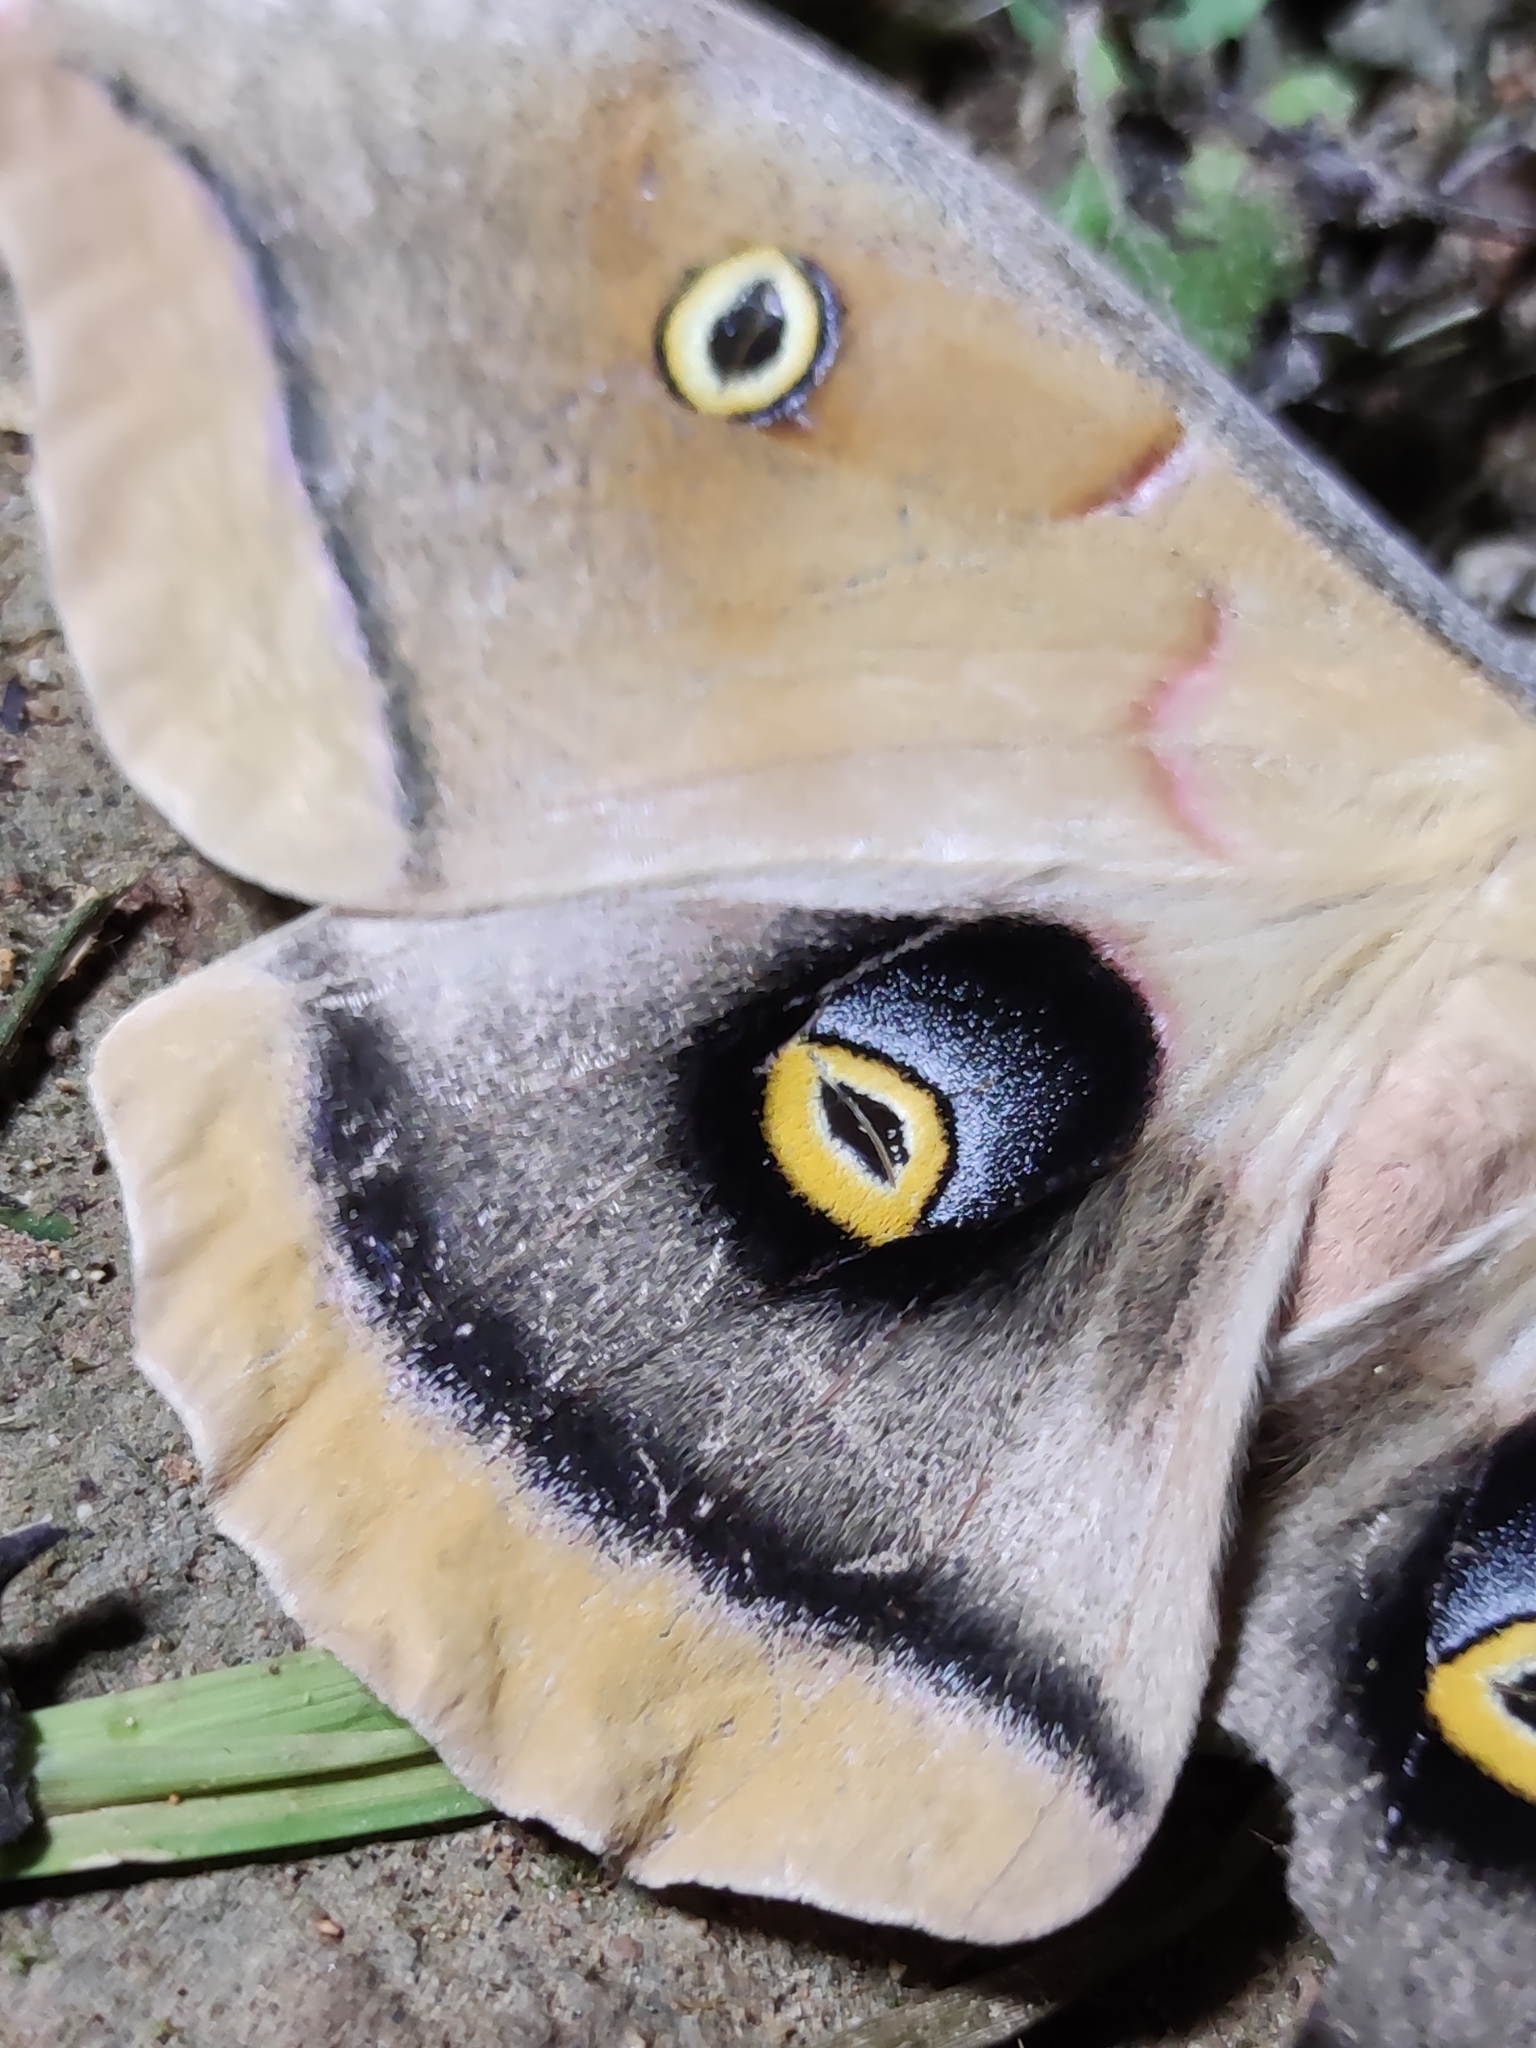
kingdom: Animalia
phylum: Arthropoda
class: Insecta
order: Lepidoptera
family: Saturniidae
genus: Antheraea
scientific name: Antheraea polyphemus
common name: Polyphemus moth
